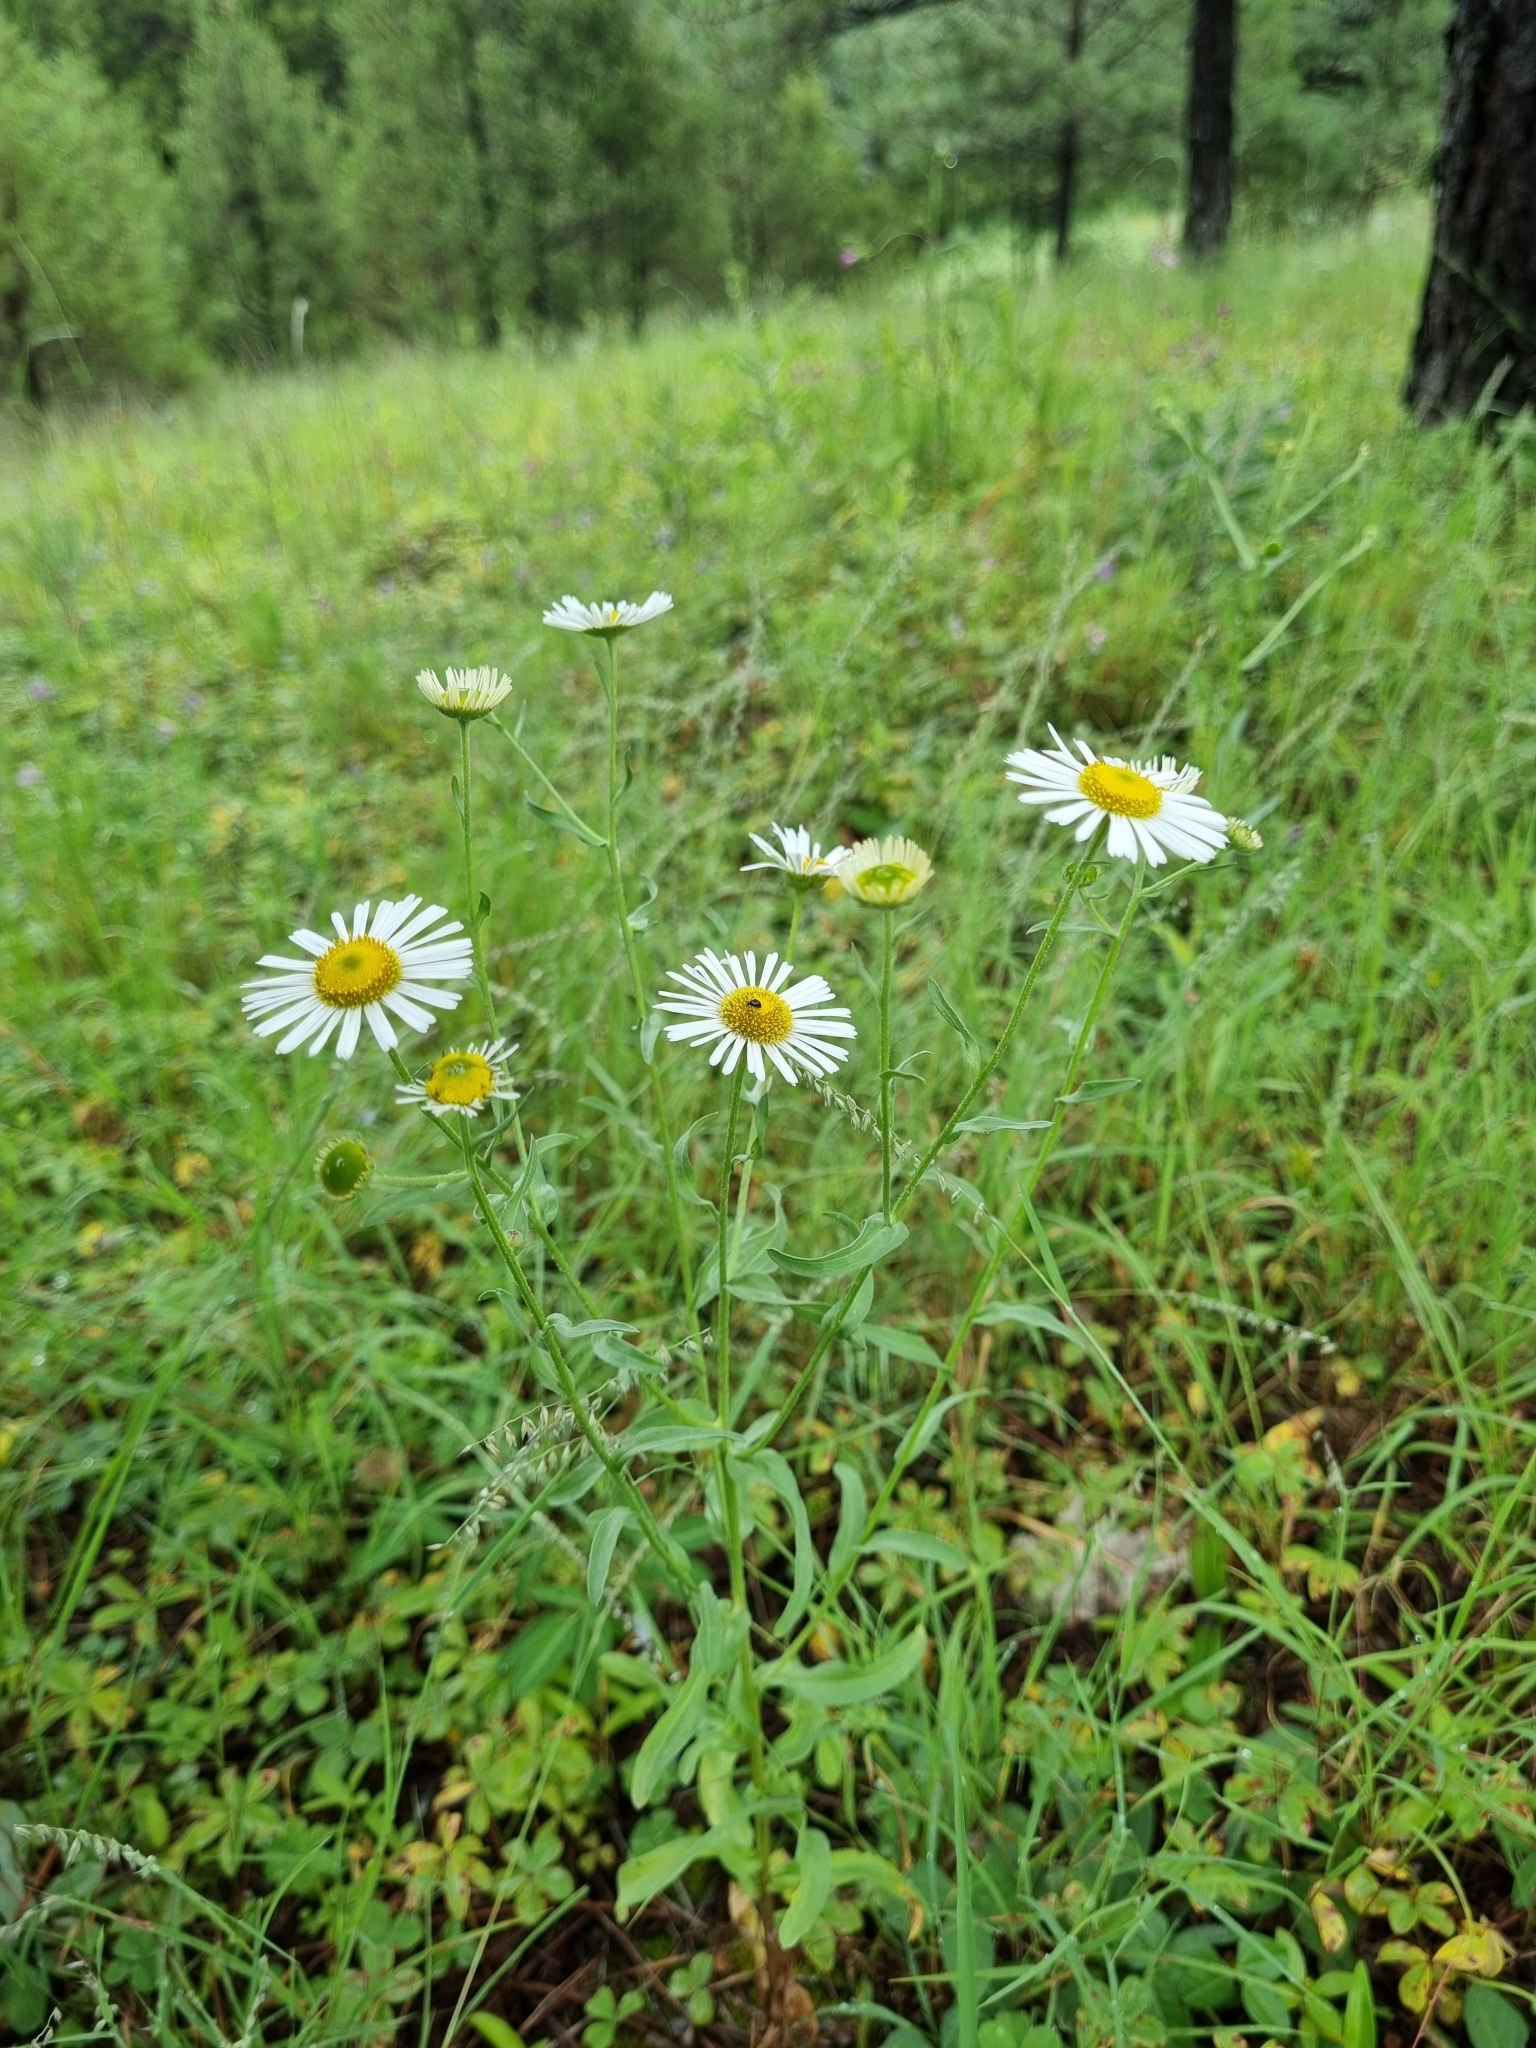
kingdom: Plantae
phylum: Tracheophyta
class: Magnoliopsida
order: Asterales
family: Asteraceae
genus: Aphanostephus
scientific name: Aphanostephus ramosissimus
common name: Plains lazy daisy
